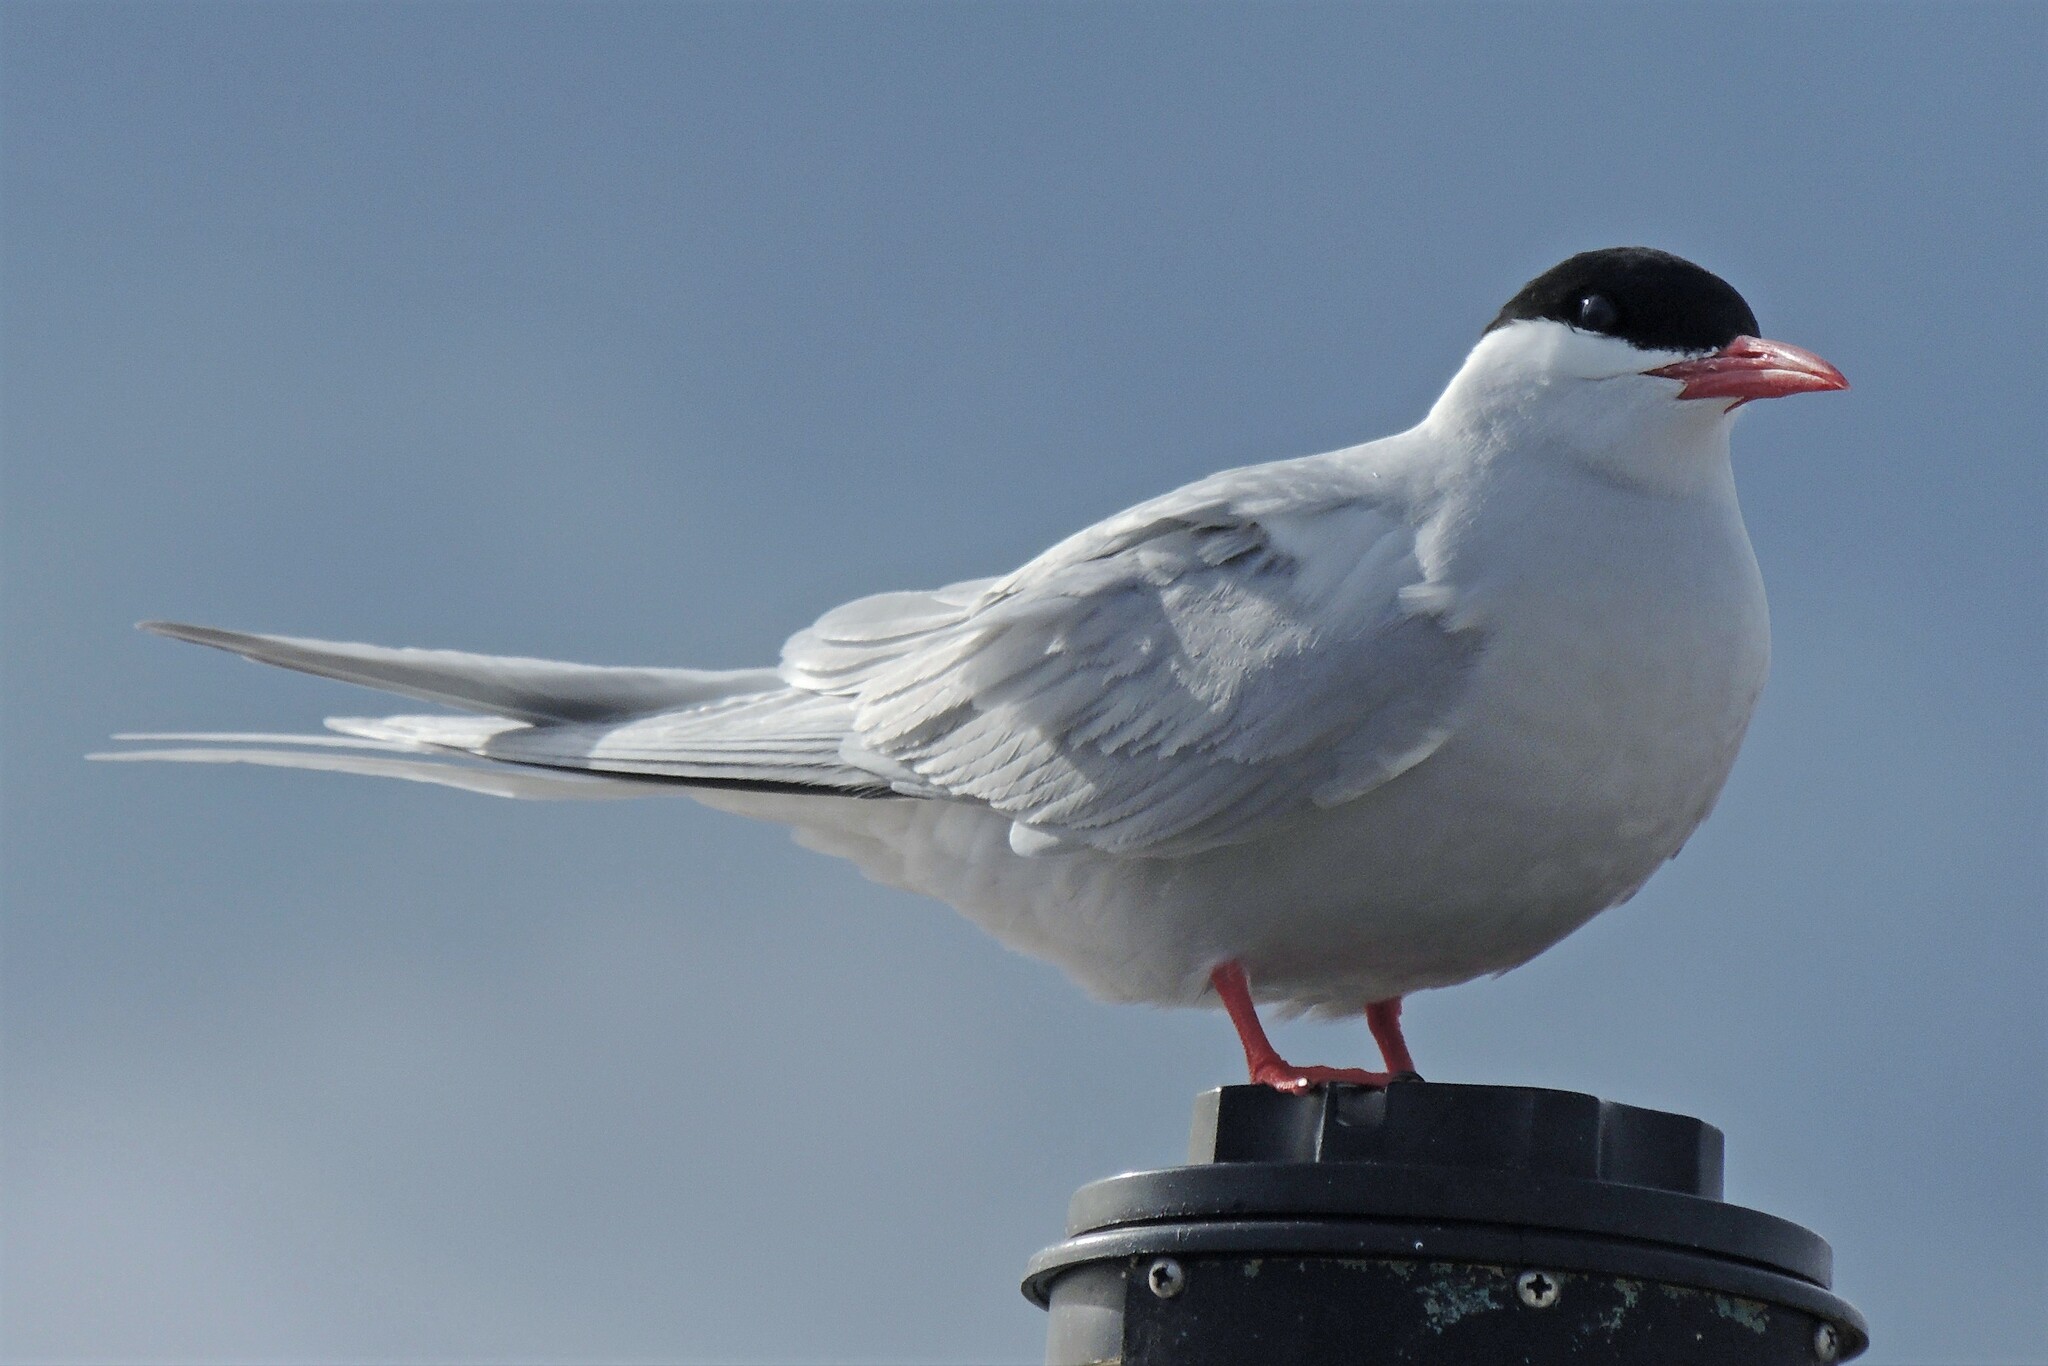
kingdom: Animalia
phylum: Chordata
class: Aves
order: Charadriiformes
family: Laridae
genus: Sterna
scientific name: Sterna hirundinacea
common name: South american tern
